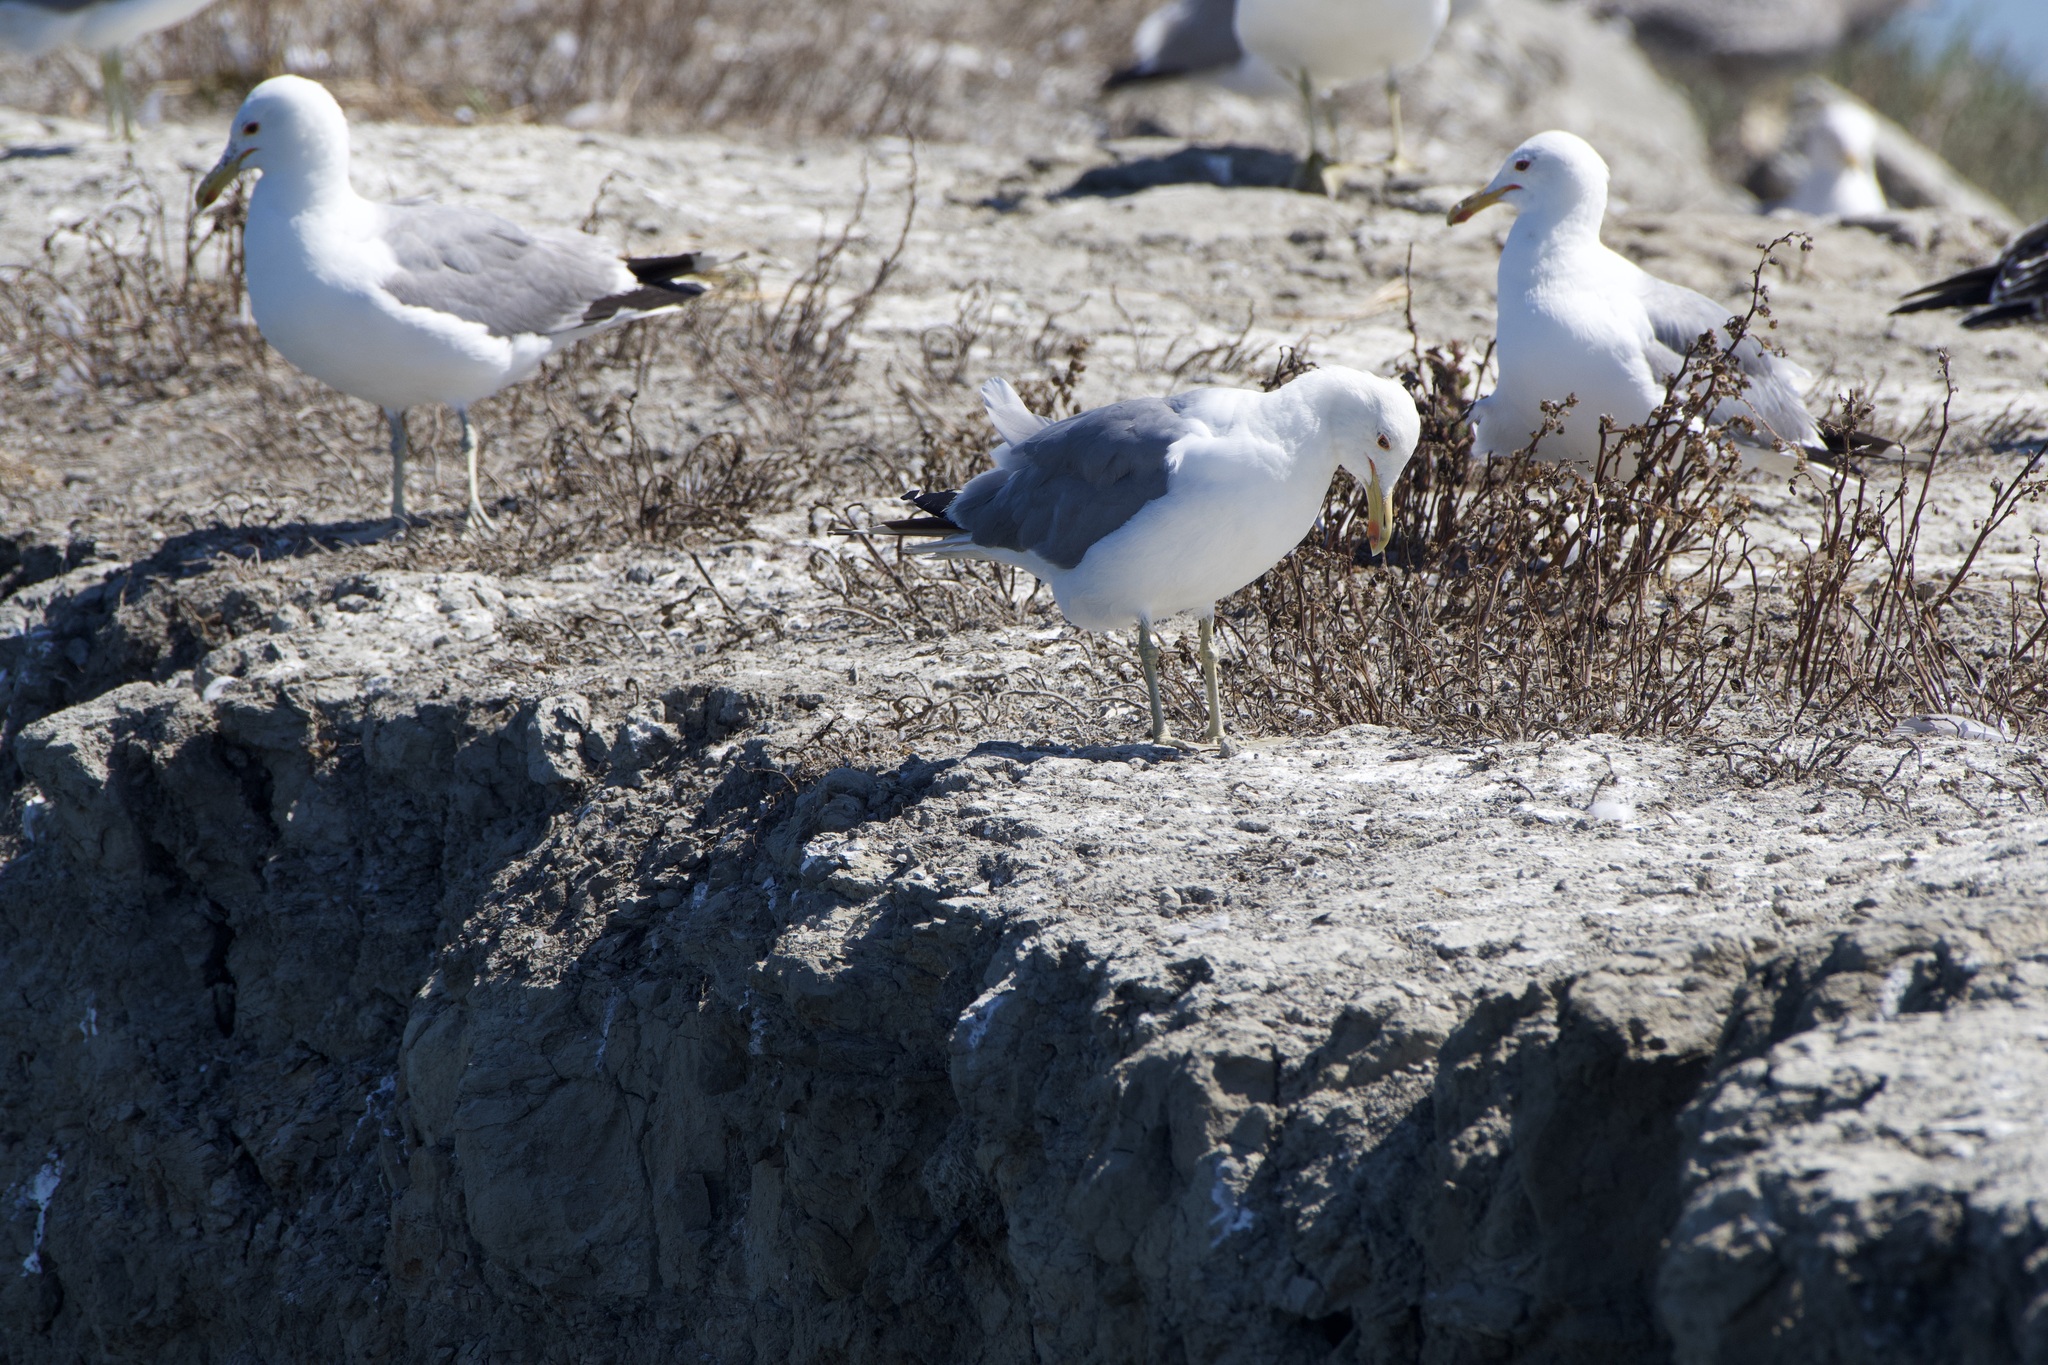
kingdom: Animalia
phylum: Chordata
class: Aves
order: Charadriiformes
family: Laridae
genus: Larus
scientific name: Larus californicus
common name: California gull
